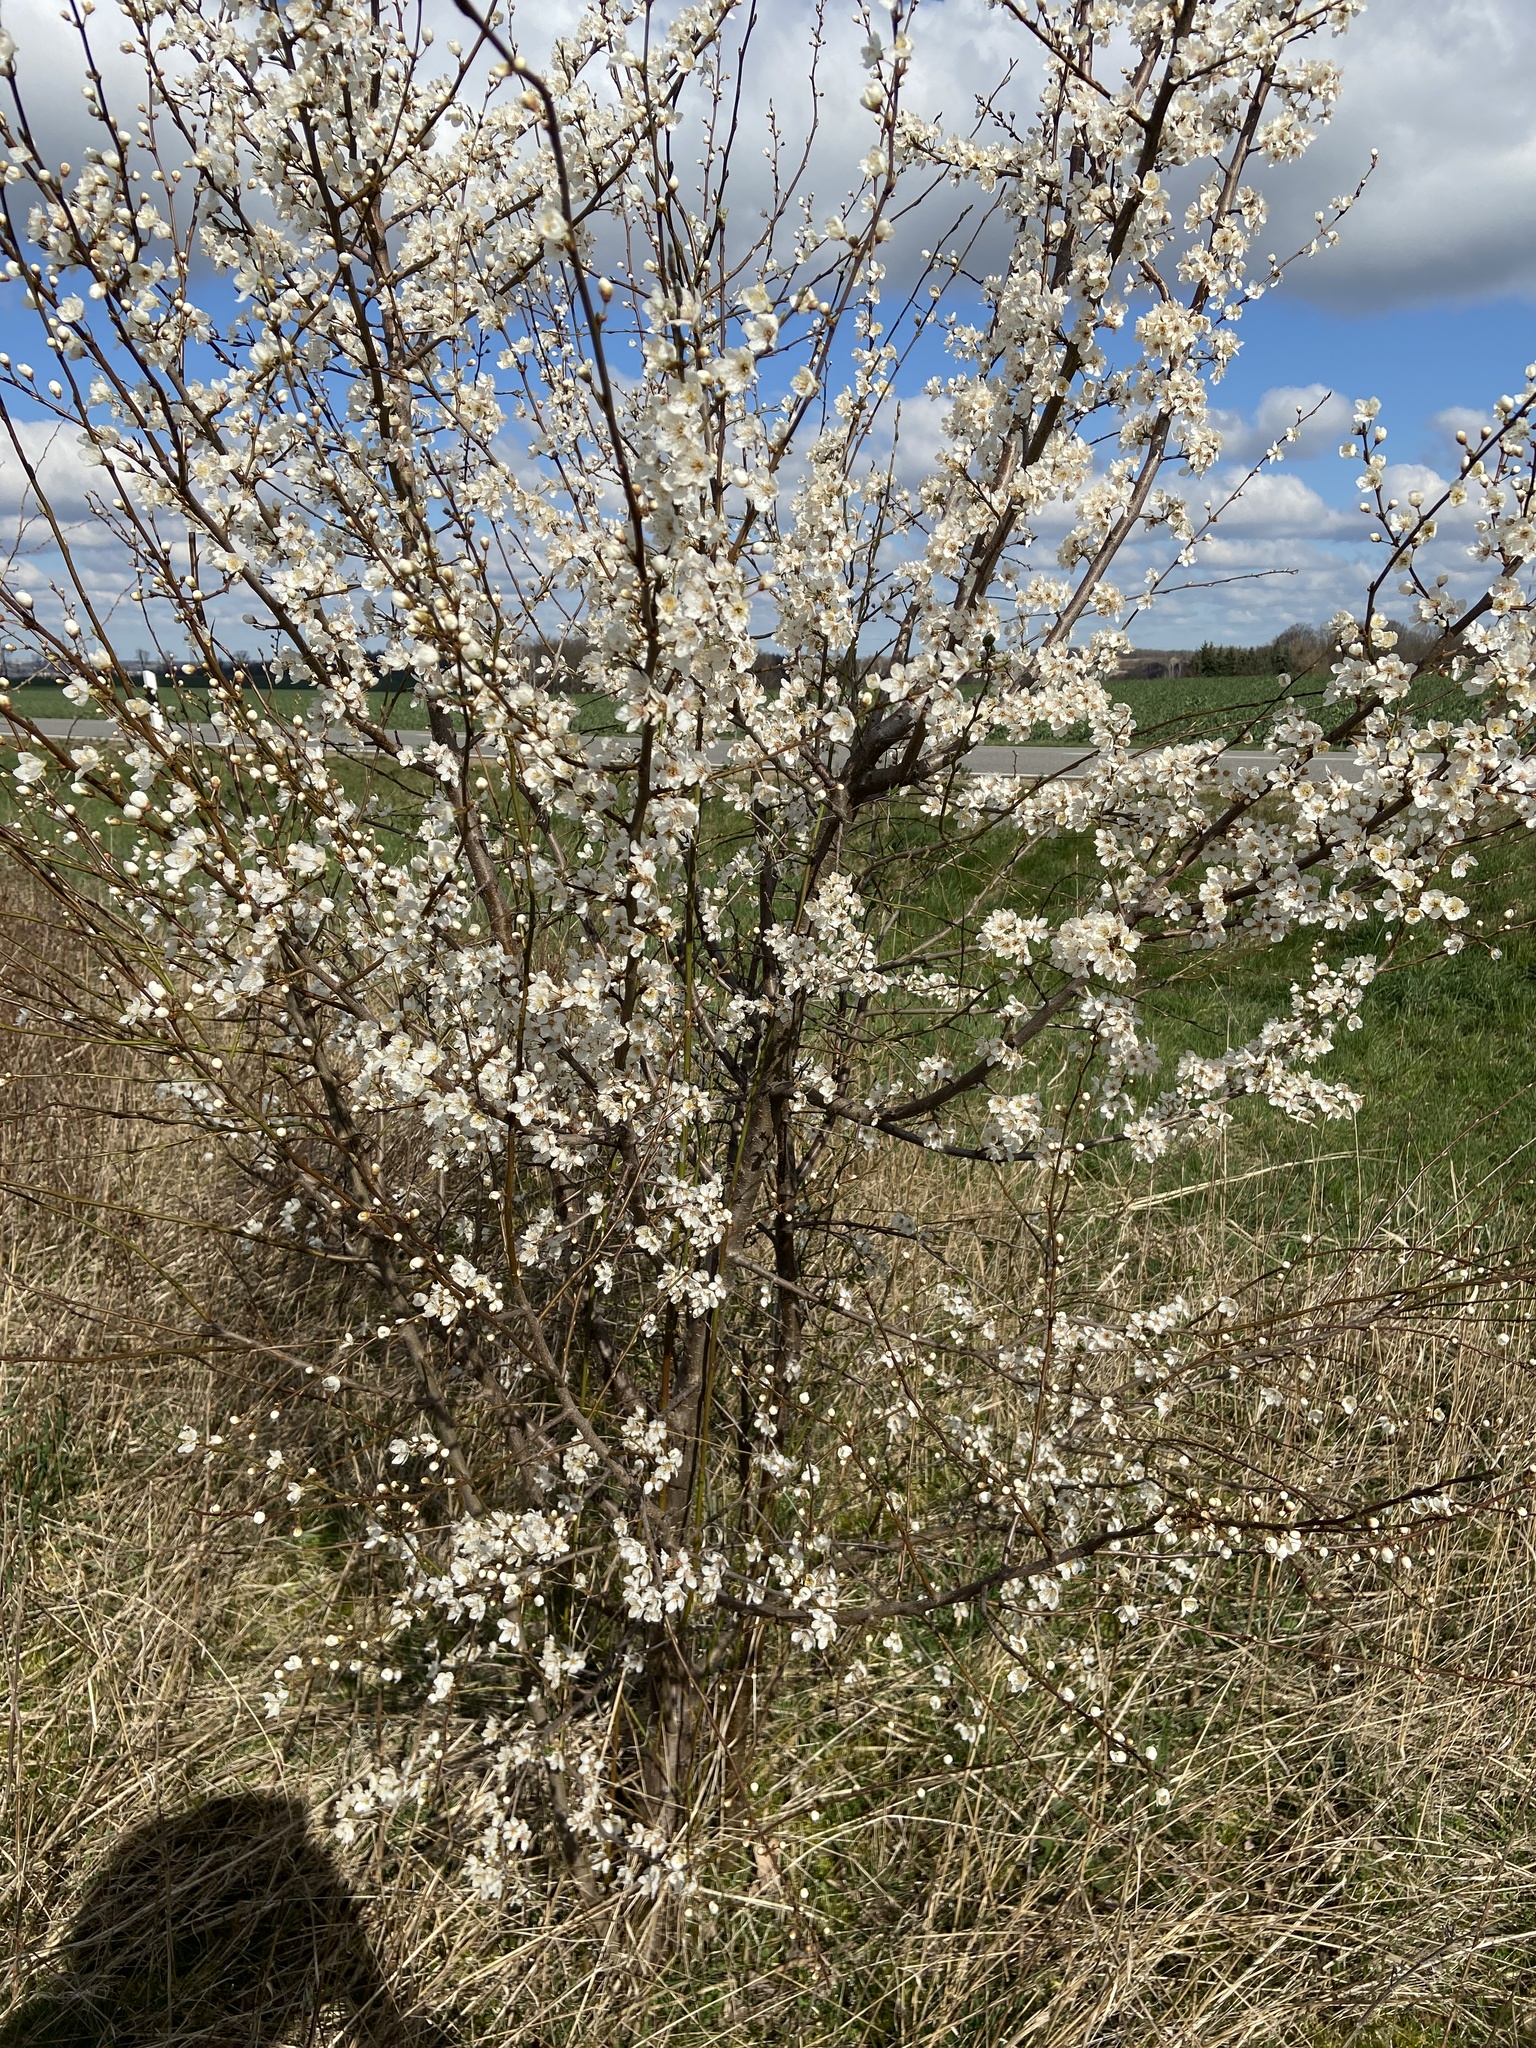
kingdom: Plantae
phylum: Tracheophyta
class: Magnoliopsida
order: Rosales
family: Rosaceae
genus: Prunus
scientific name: Prunus cerasifera
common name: Cherry plum
